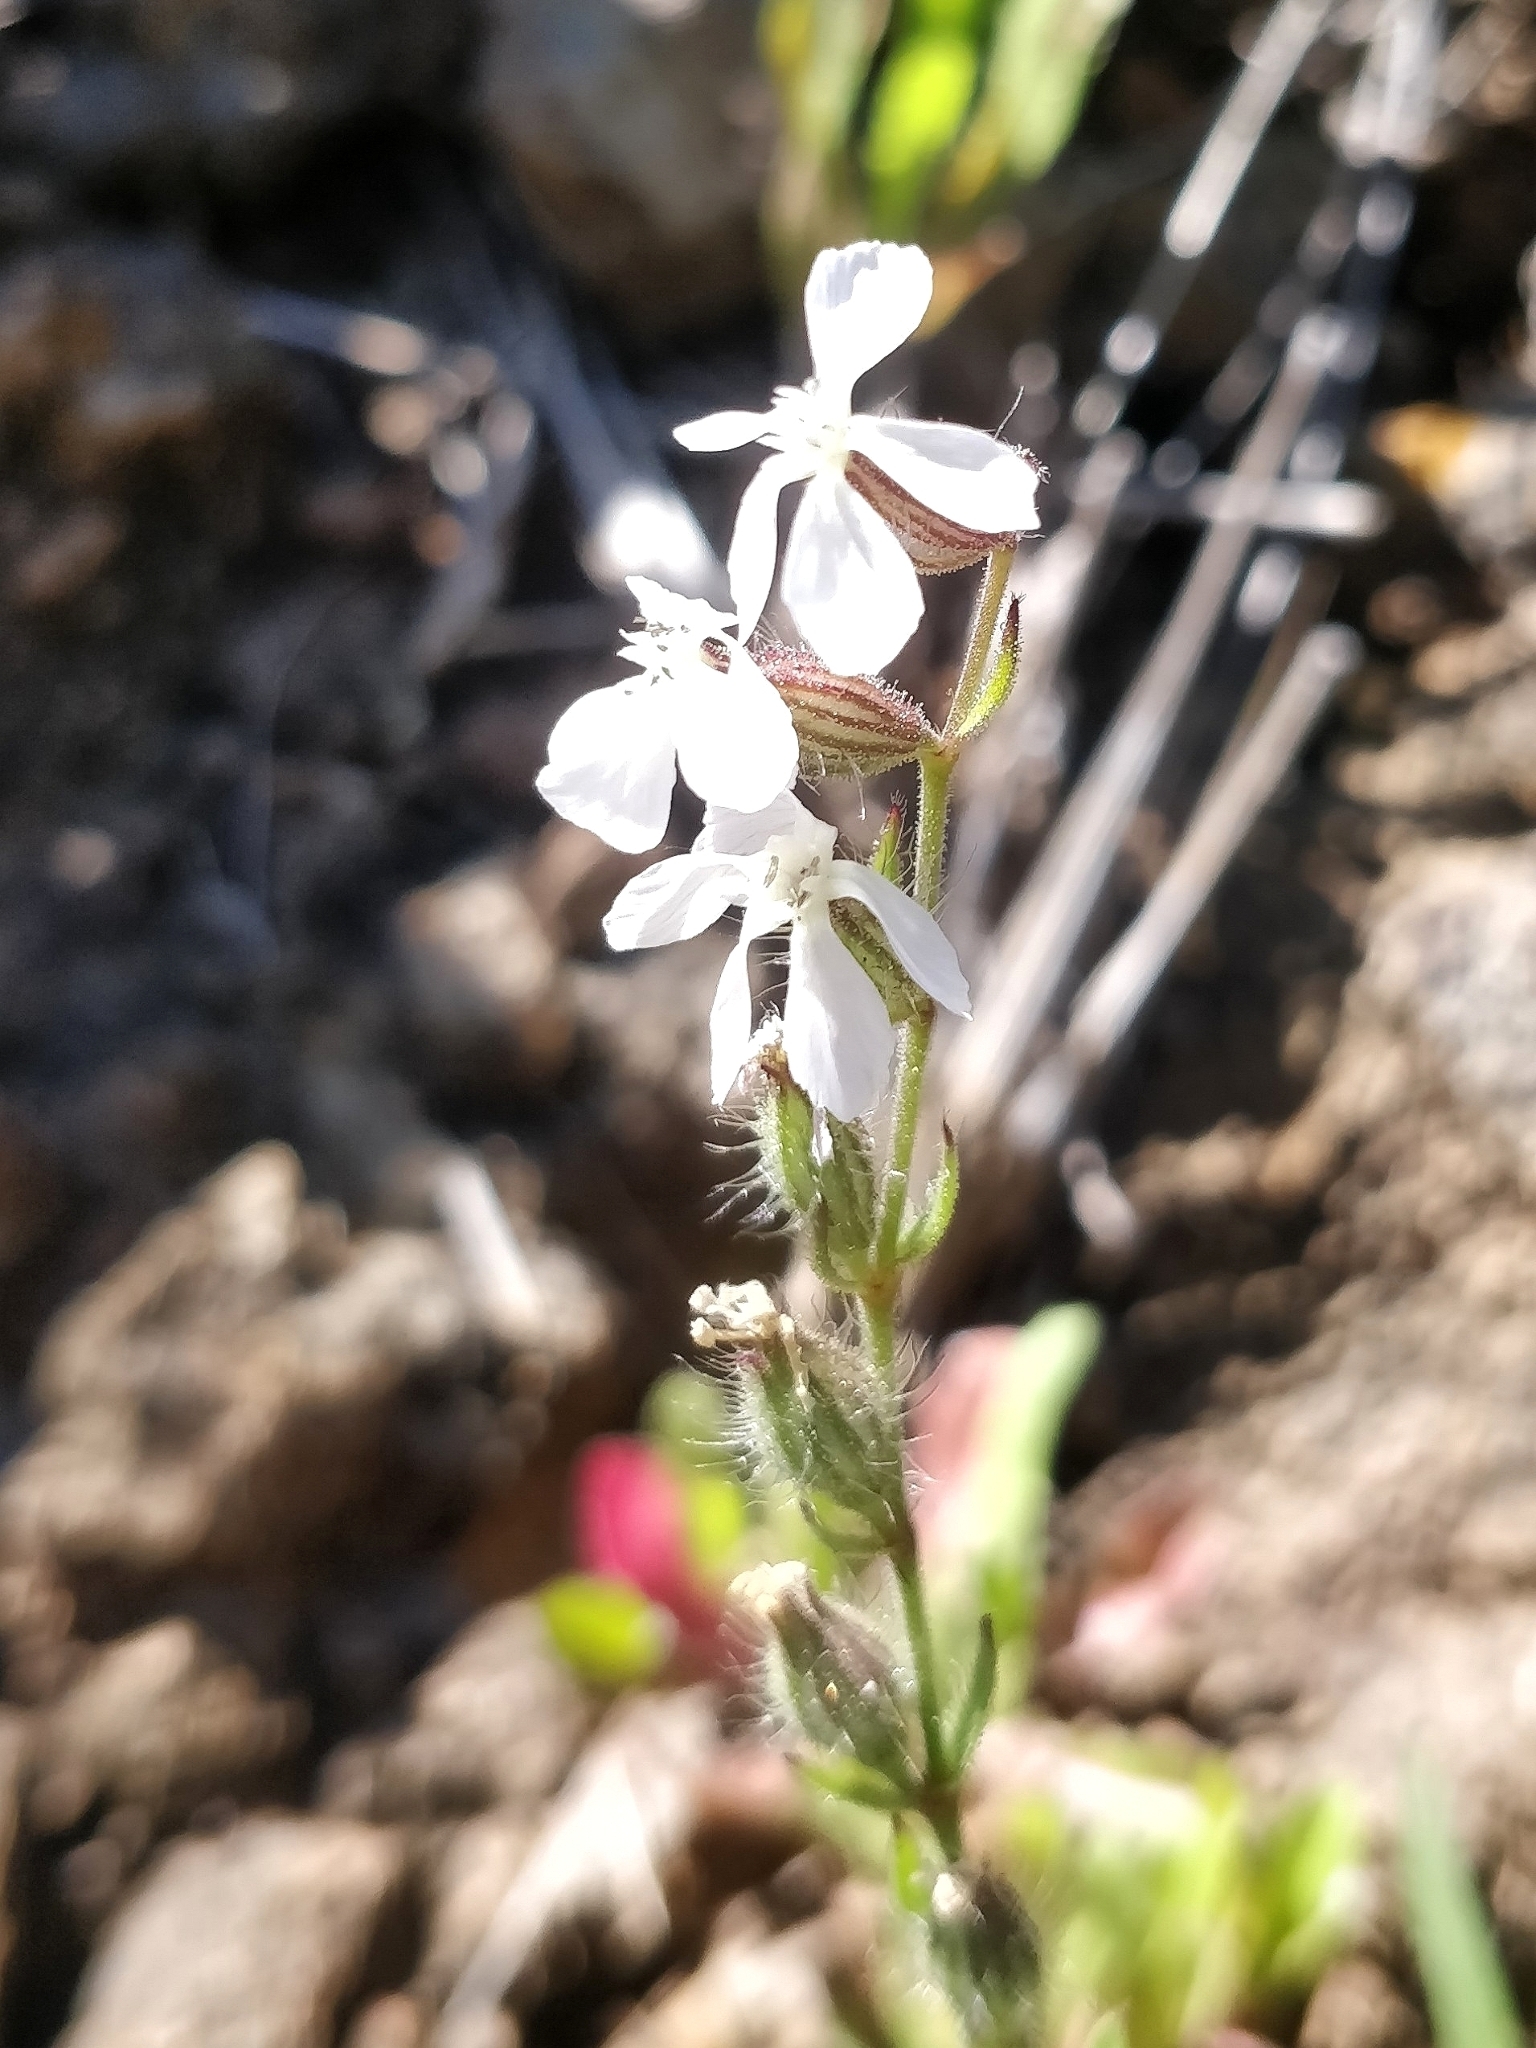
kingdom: Plantae
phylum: Tracheophyta
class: Magnoliopsida
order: Caryophyllales
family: Caryophyllaceae
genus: Silene
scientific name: Silene gallica
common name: Small-flowered catchfly
